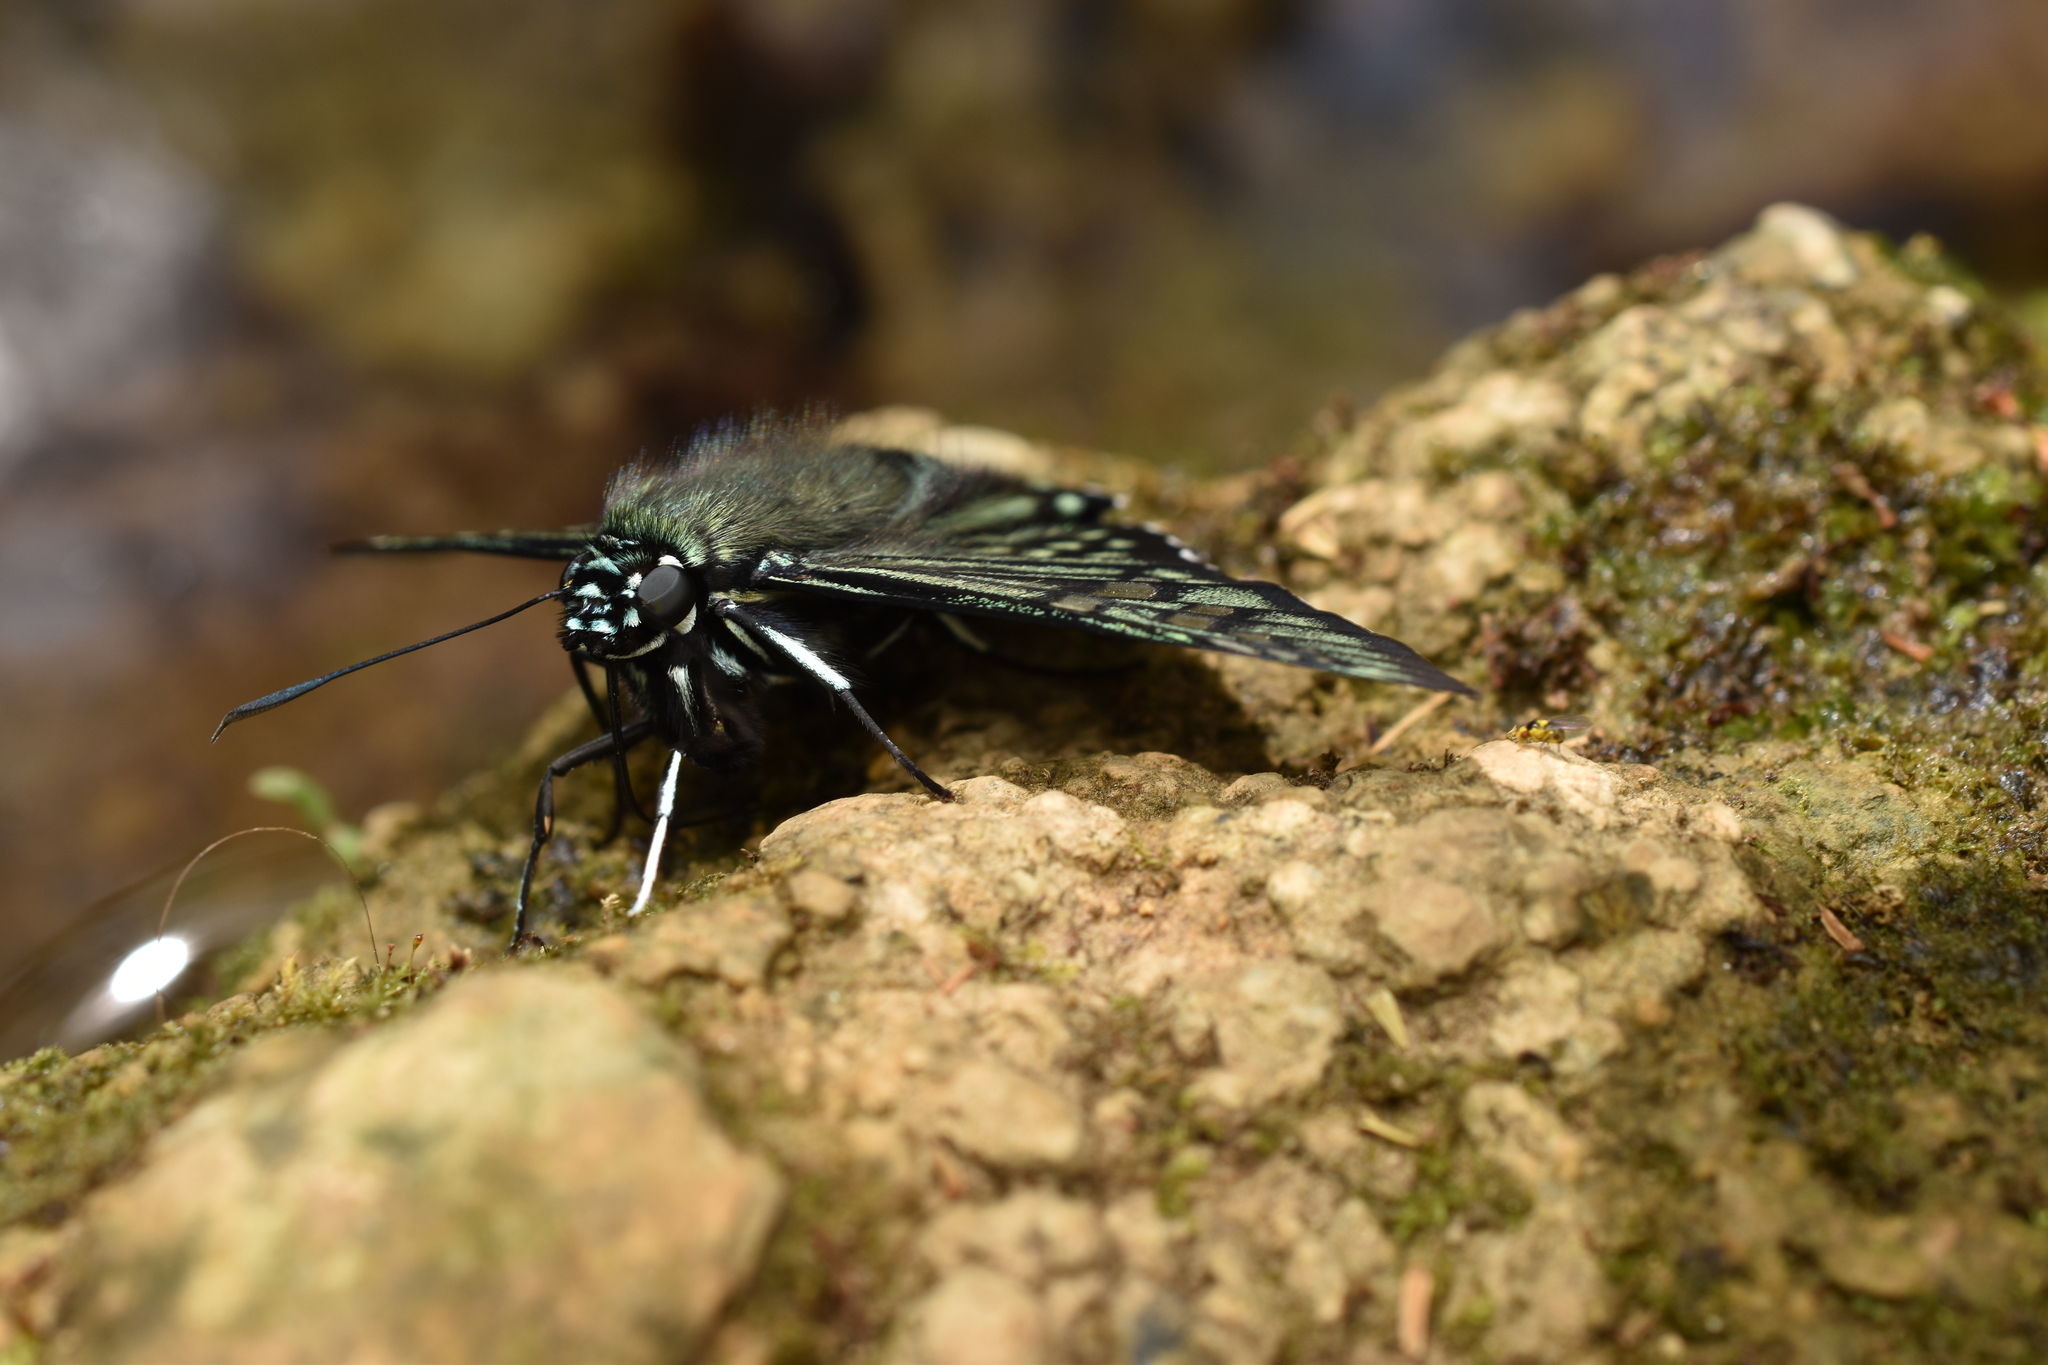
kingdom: Animalia
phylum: Arthropoda
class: Insecta
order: Lepidoptera
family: Hesperiidae
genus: Phocides
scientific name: Phocides urania
